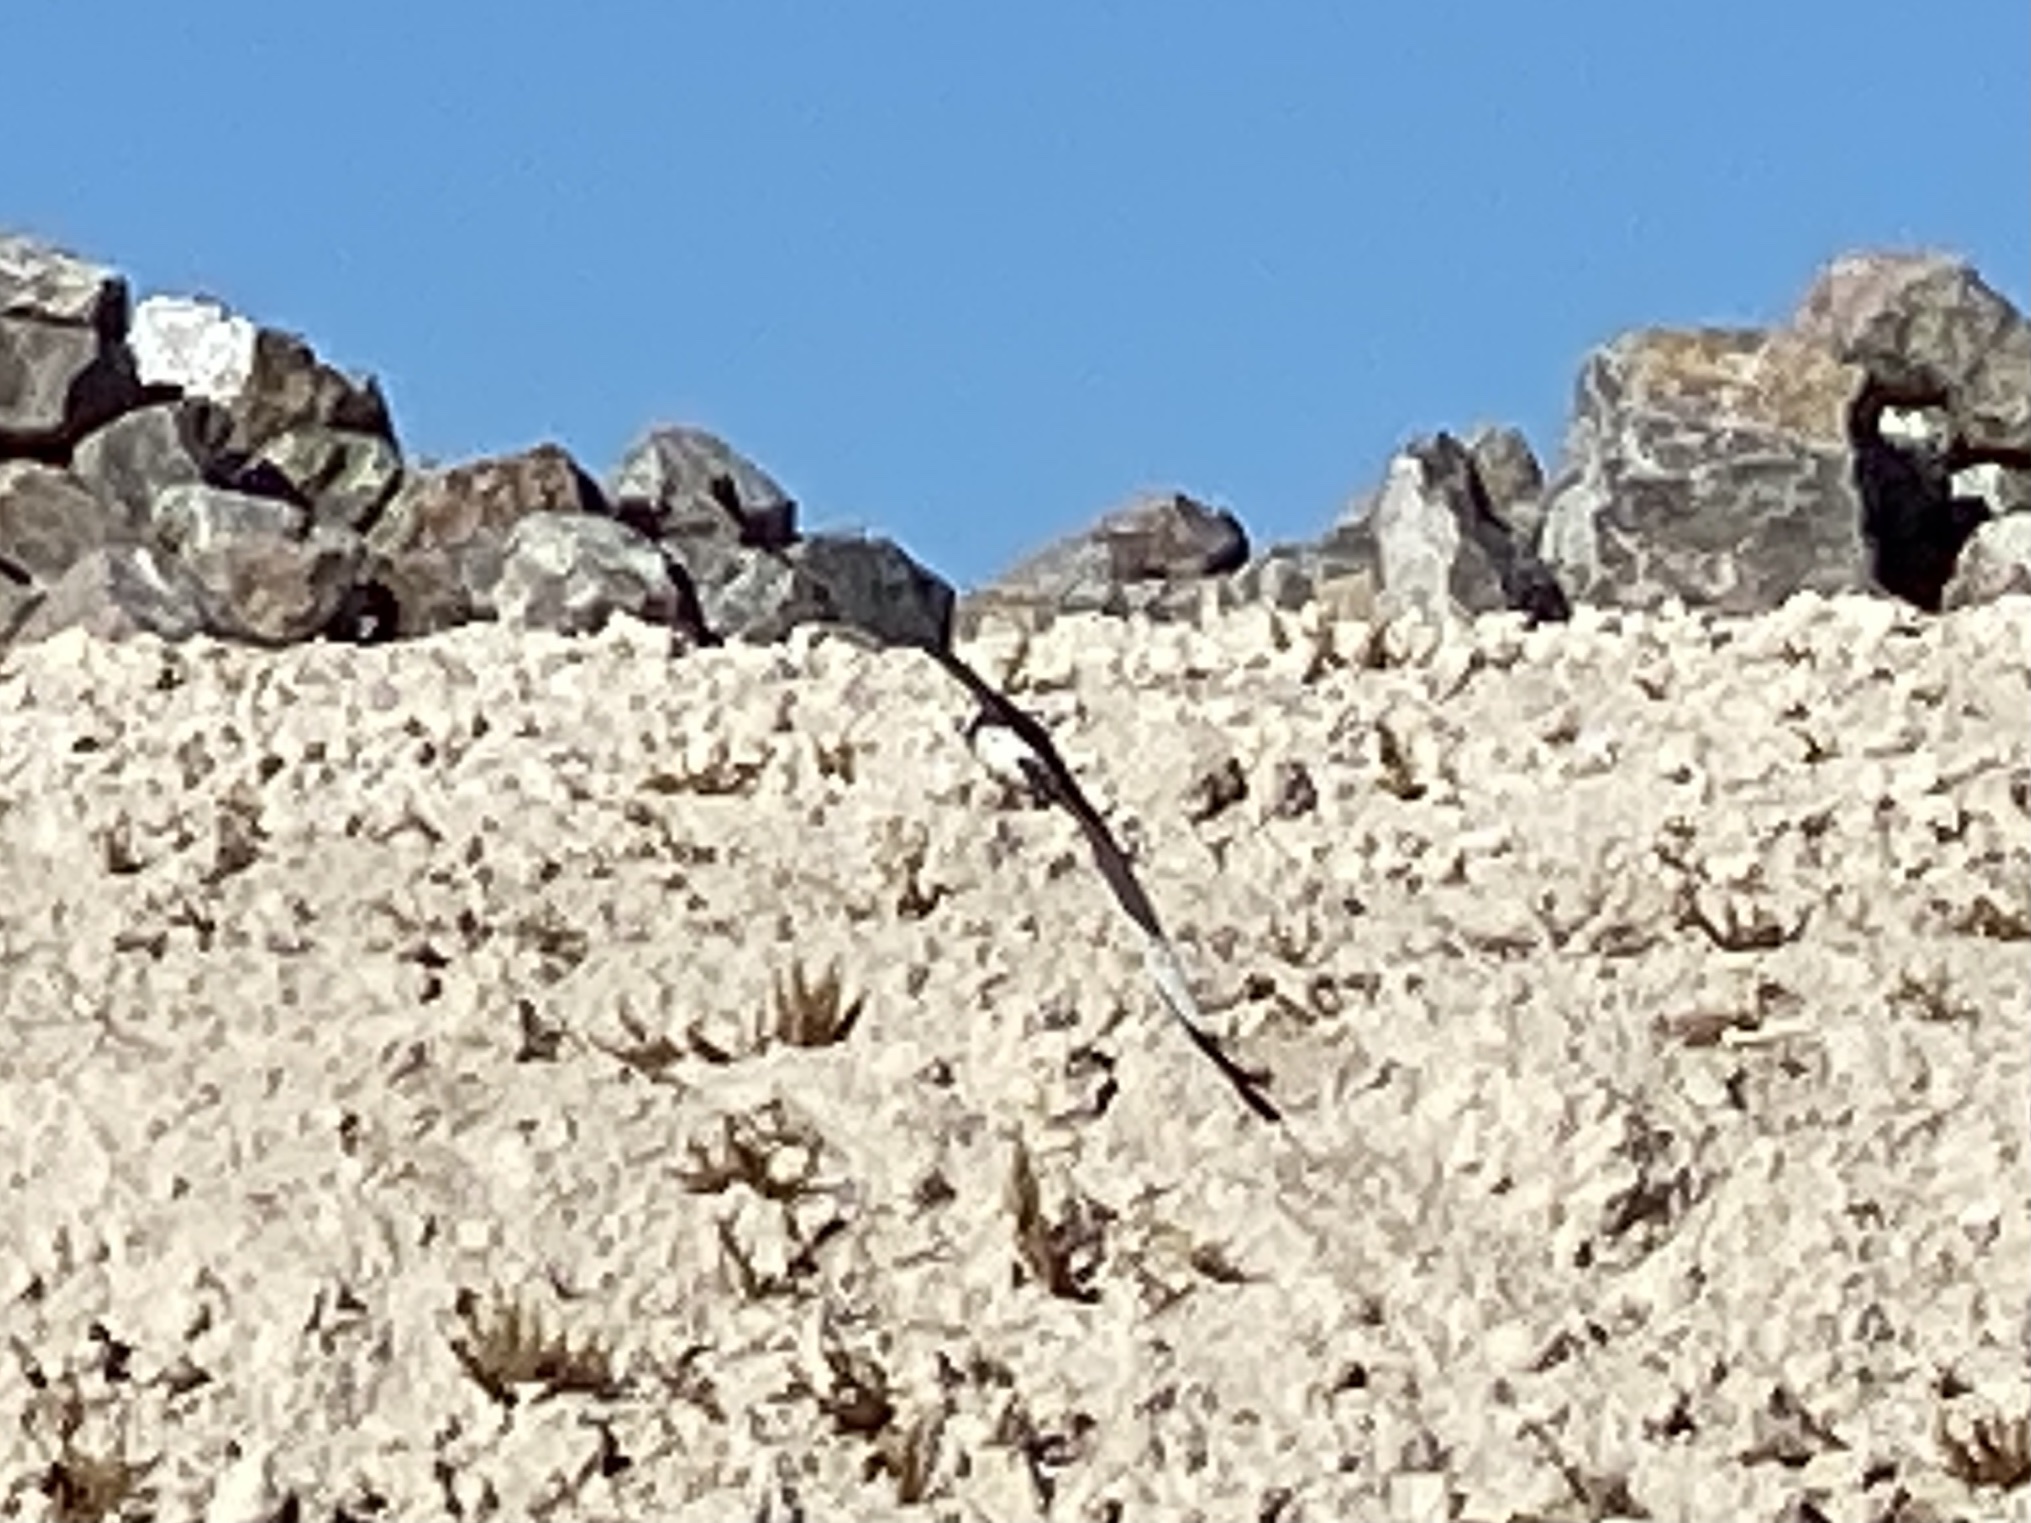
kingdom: Animalia
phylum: Chordata
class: Aves
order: Accipitriformes
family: Accipitridae
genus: Circus
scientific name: Circus cyaneus
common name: Hen harrier
